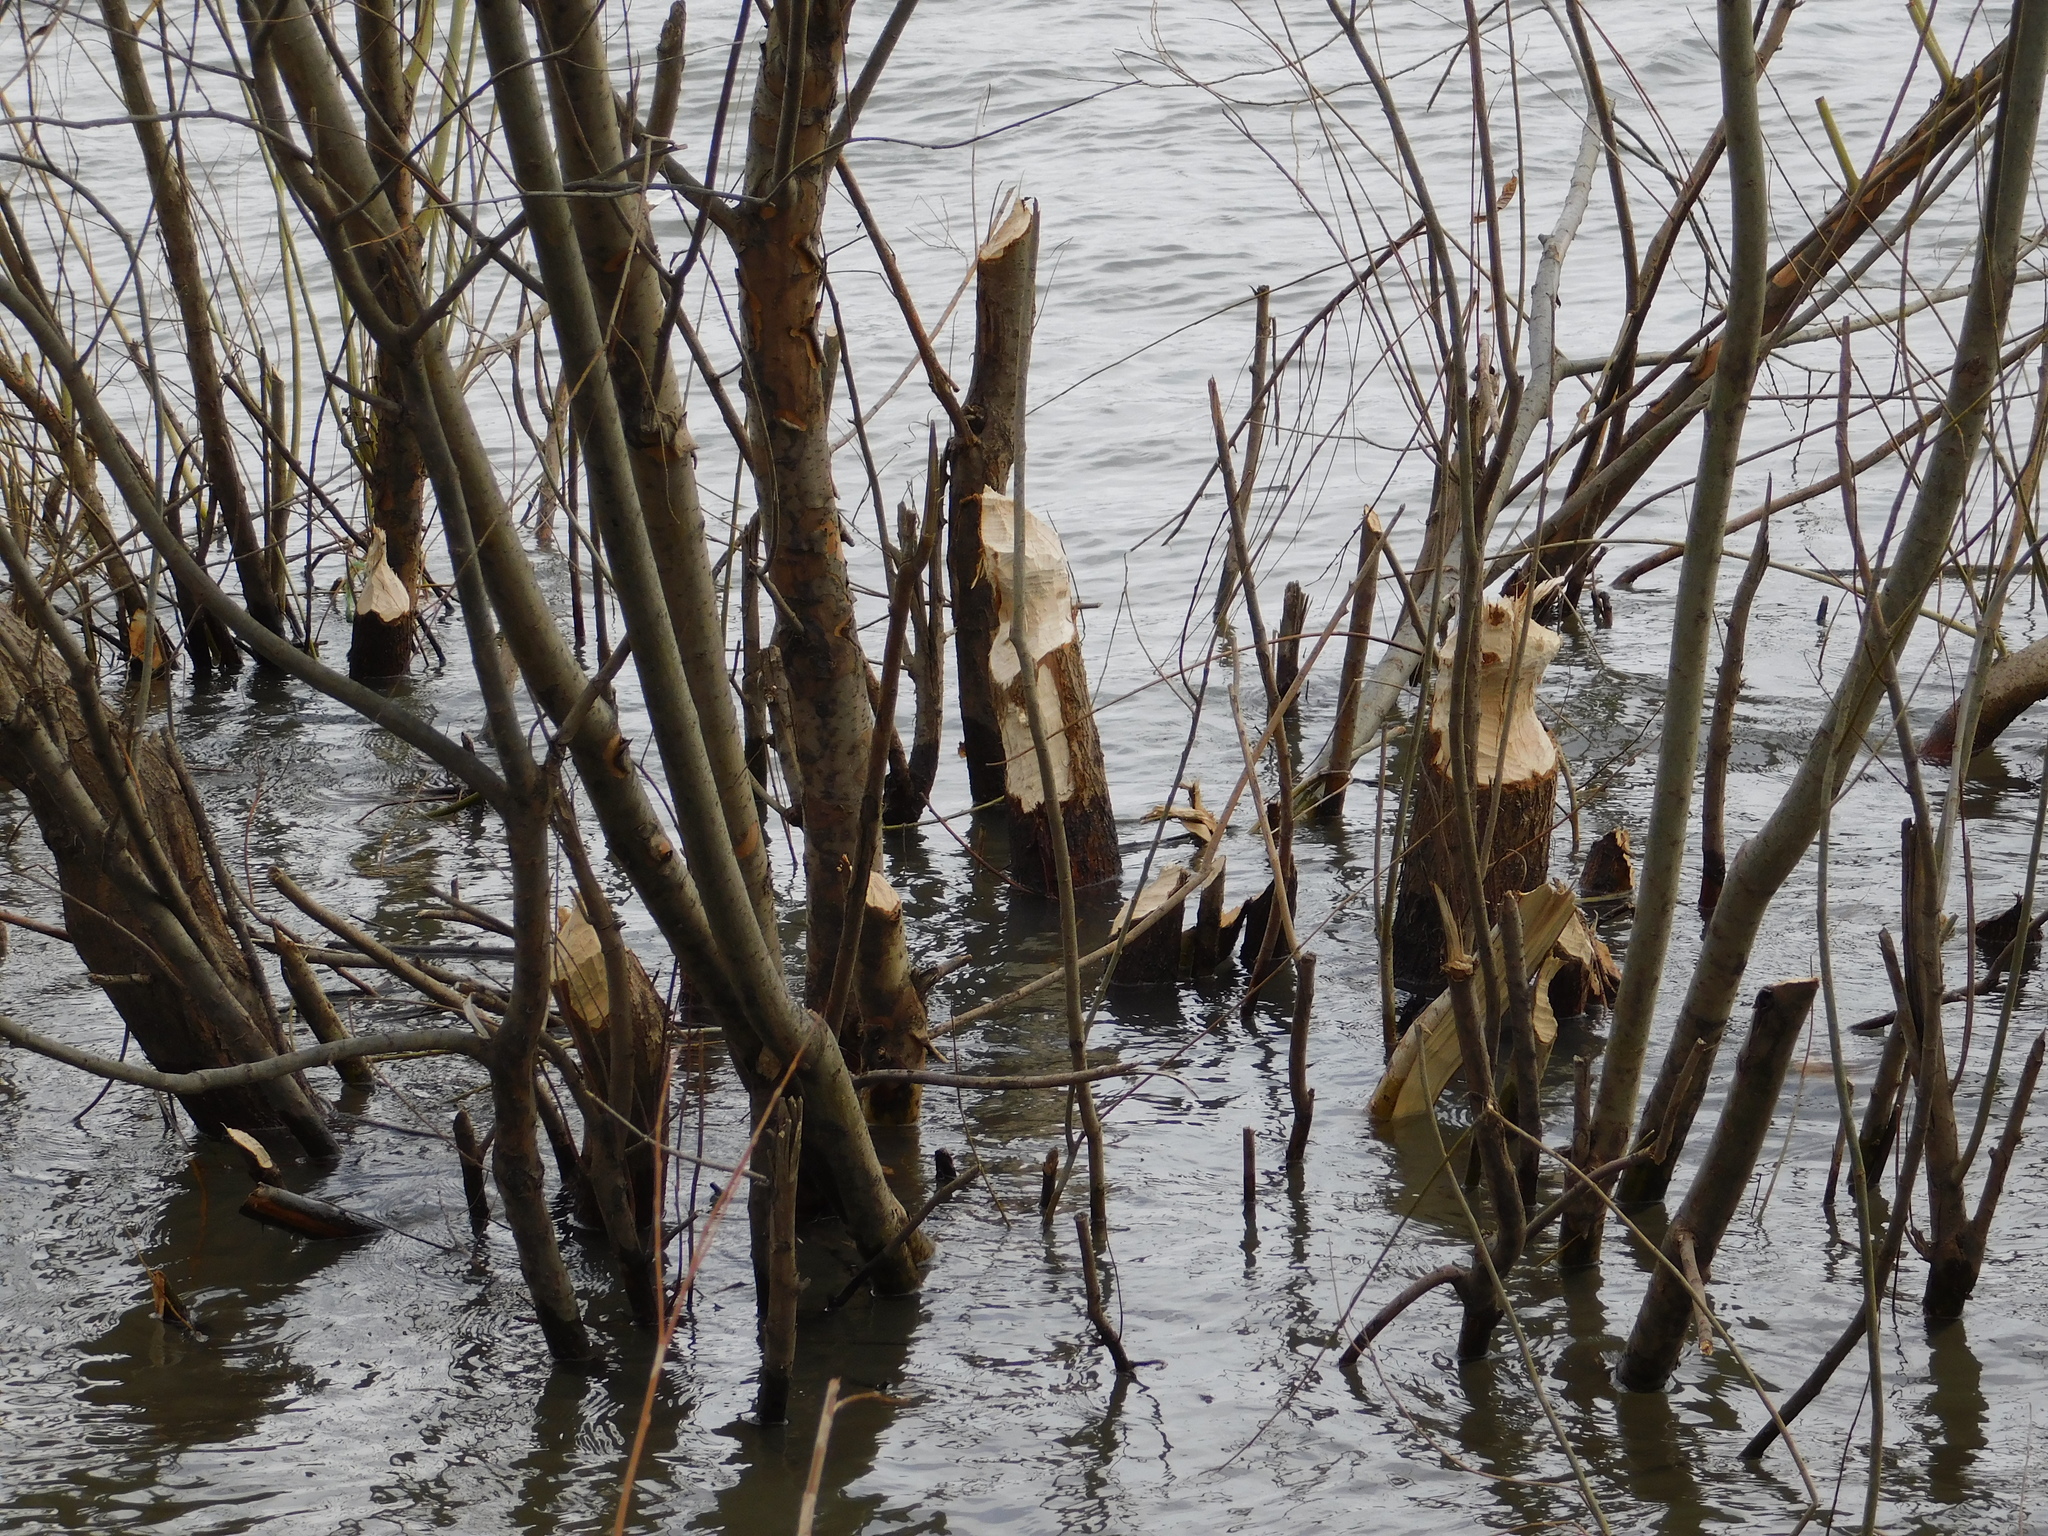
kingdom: Animalia
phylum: Chordata
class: Mammalia
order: Rodentia
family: Castoridae
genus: Castor
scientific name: Castor fiber
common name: Eurasian beaver
